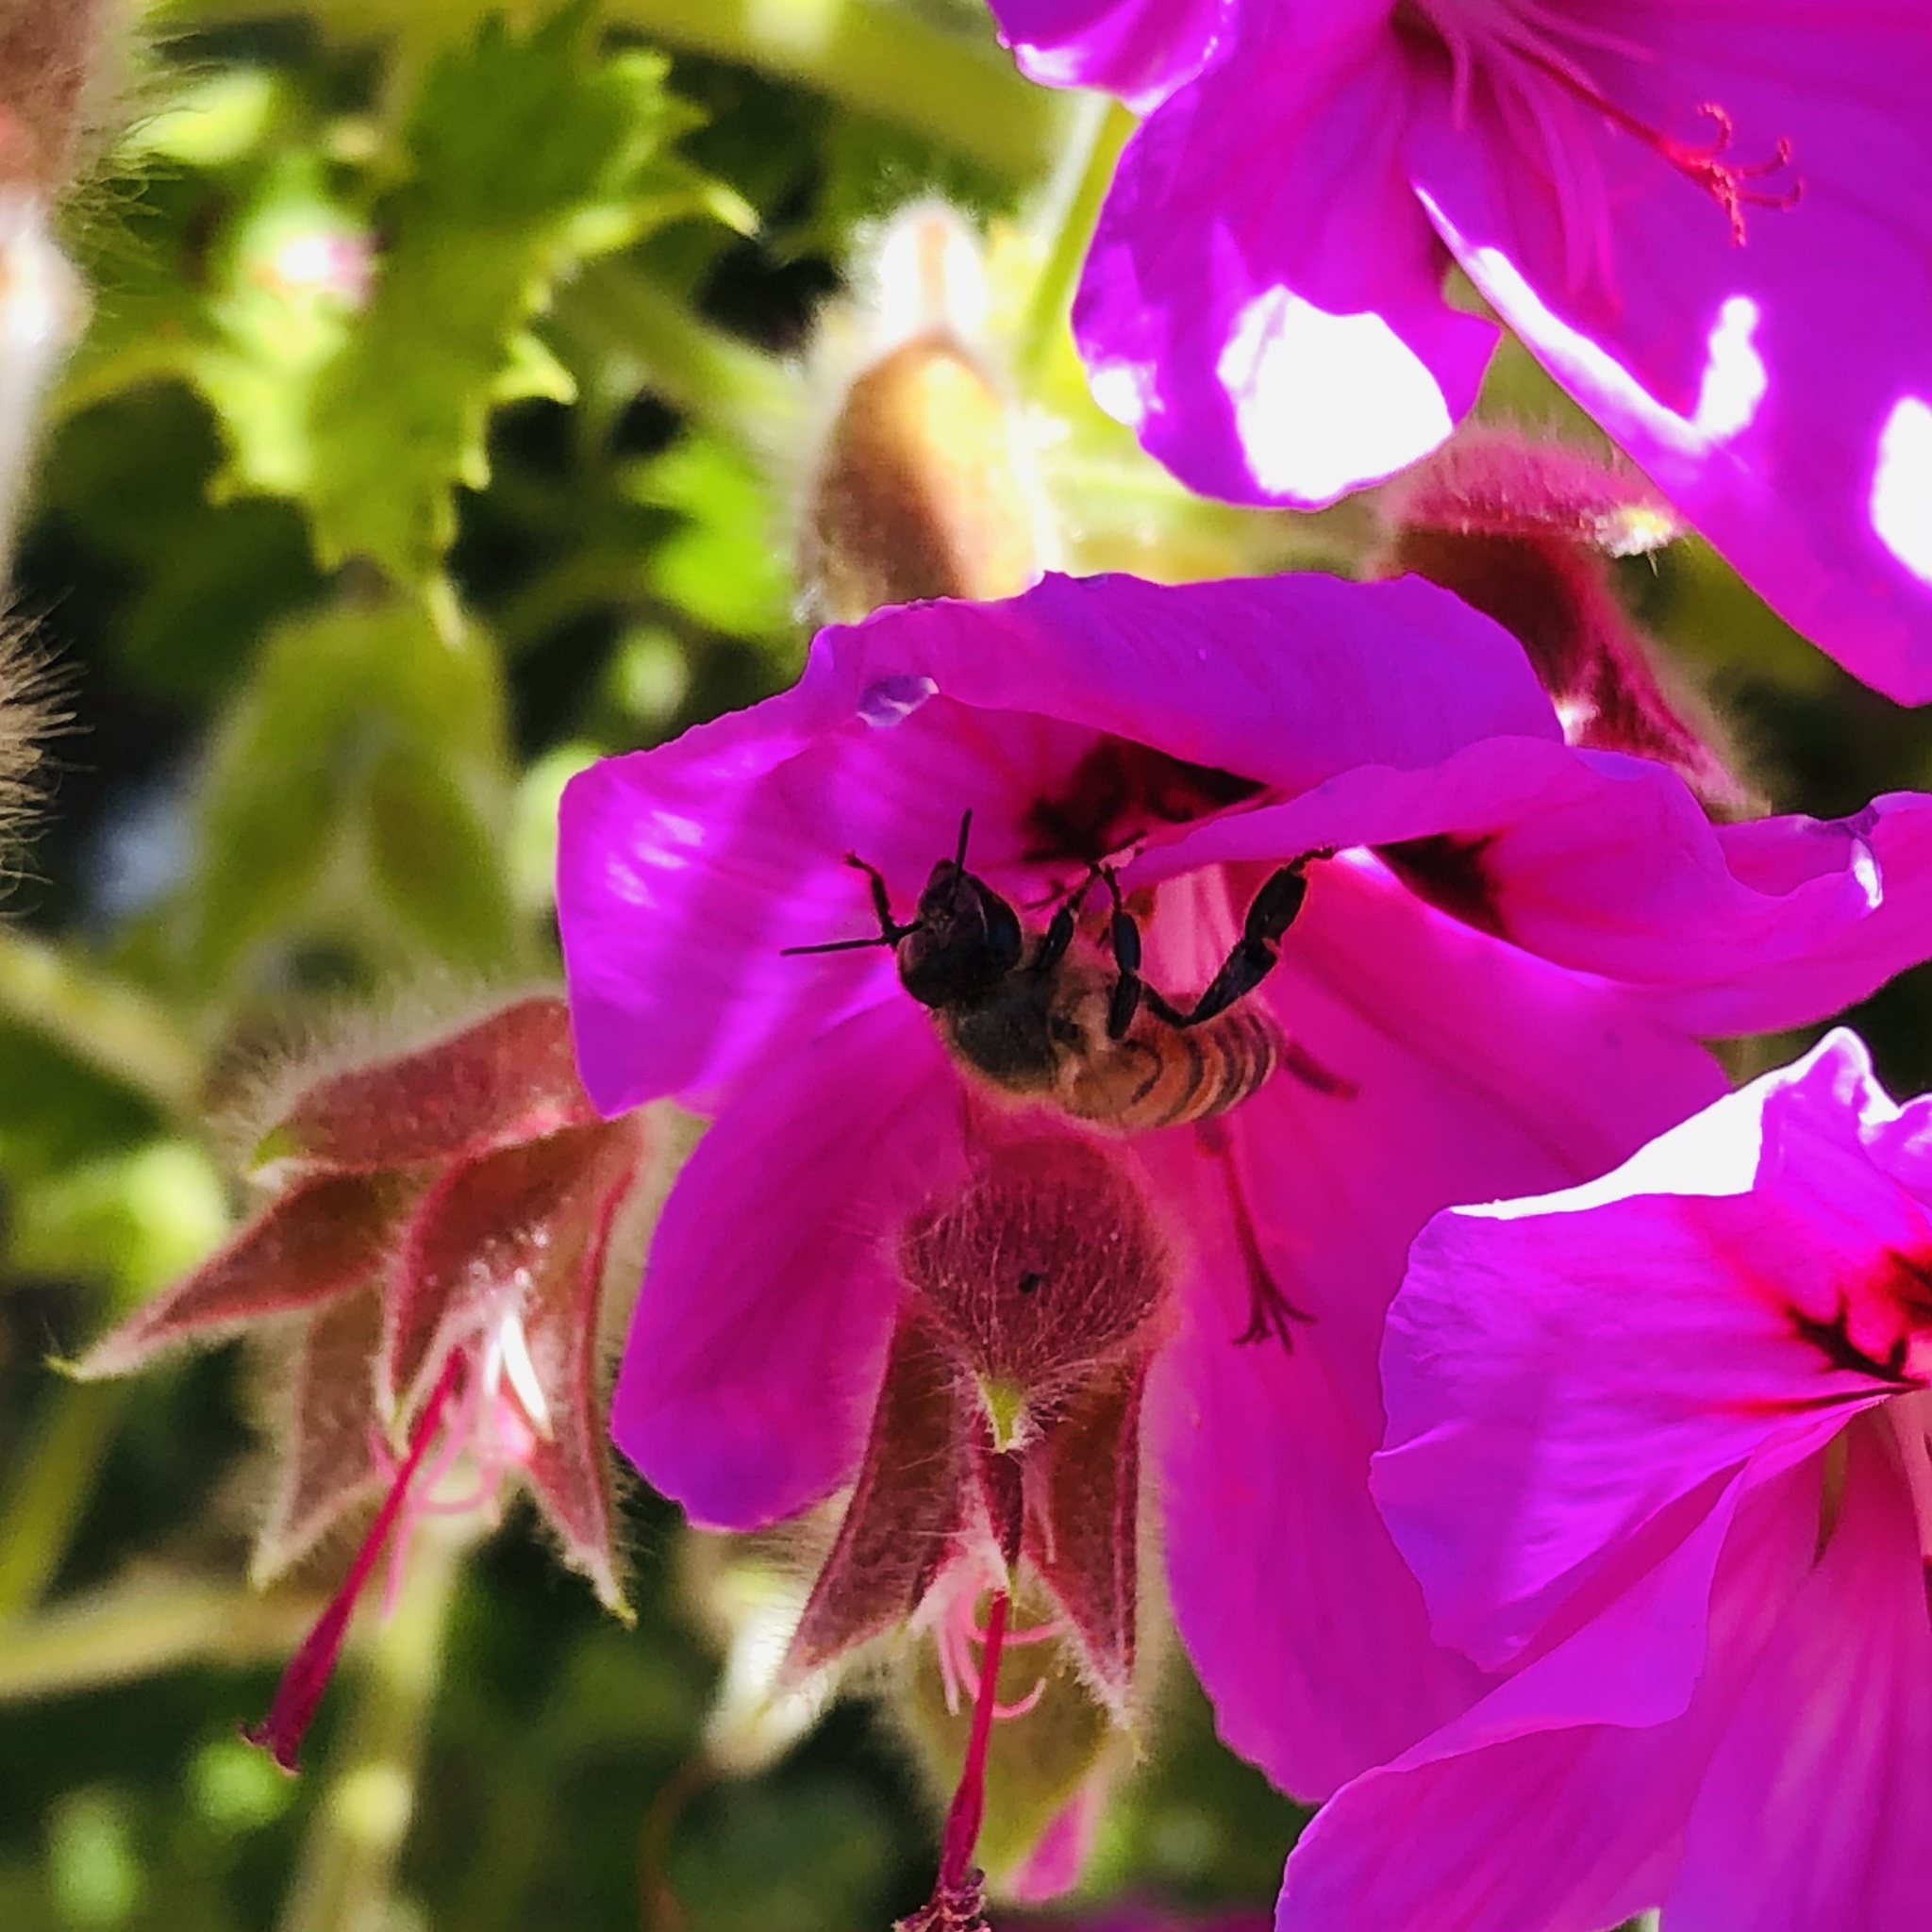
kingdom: Animalia
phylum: Arthropoda
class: Insecta
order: Hymenoptera
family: Apidae
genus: Apis
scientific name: Apis mellifera
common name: Honey bee
